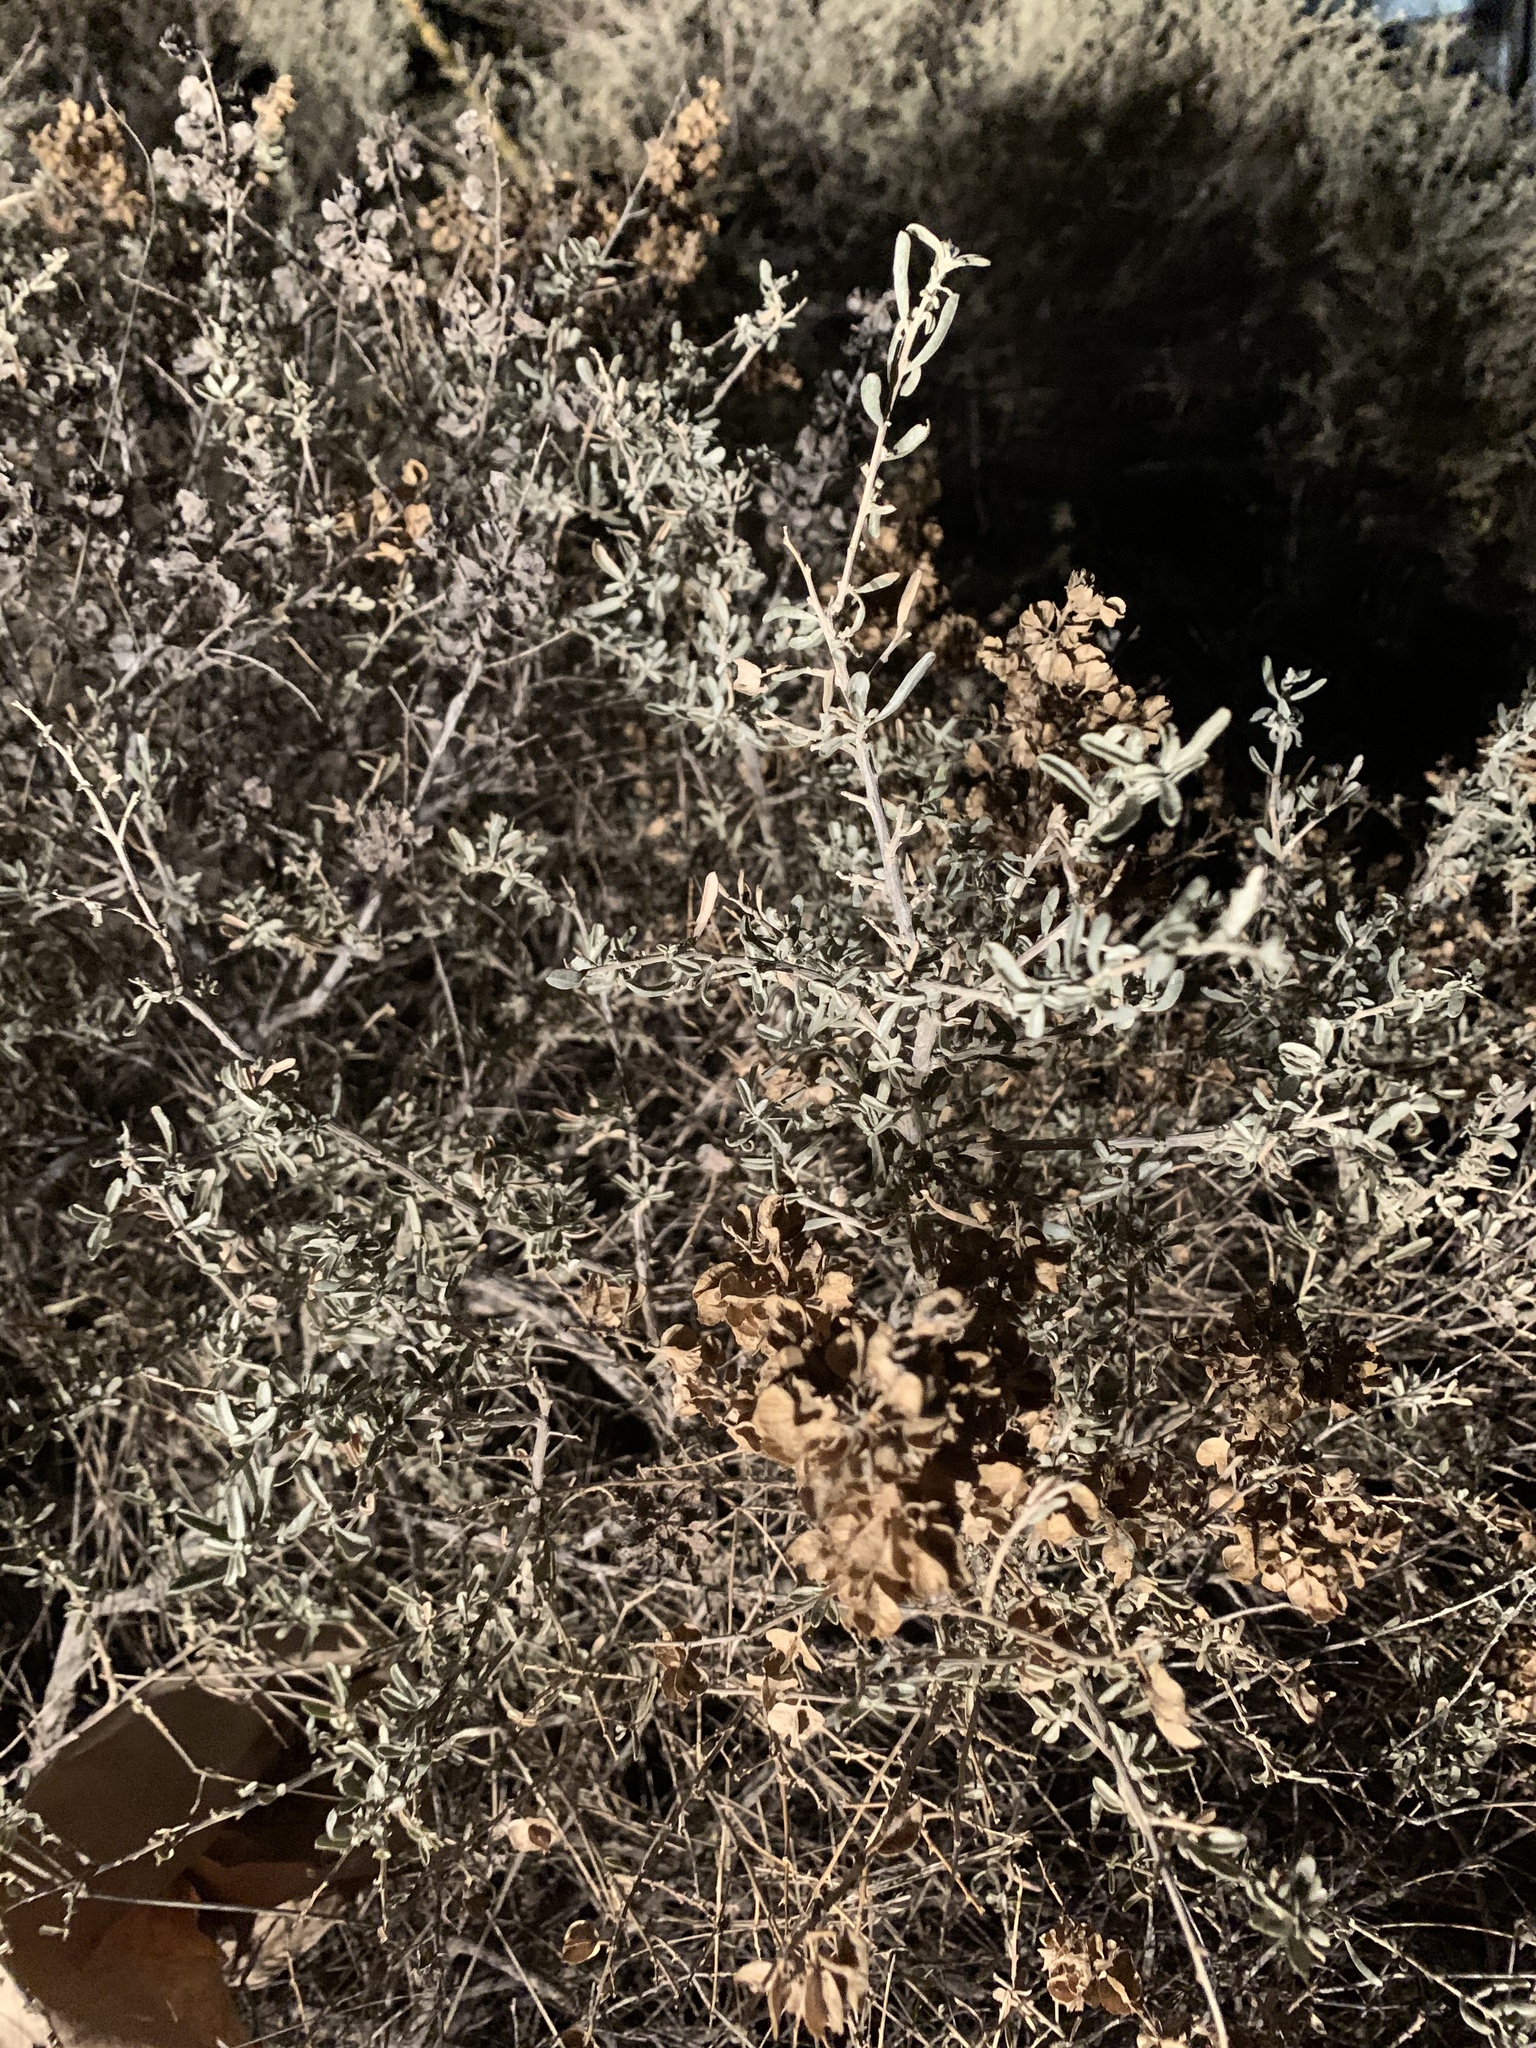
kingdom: Plantae
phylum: Tracheophyta
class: Magnoliopsida
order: Caryophyllales
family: Amaranthaceae
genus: Atriplex
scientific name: Atriplex canescens
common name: Four-wing saltbush
